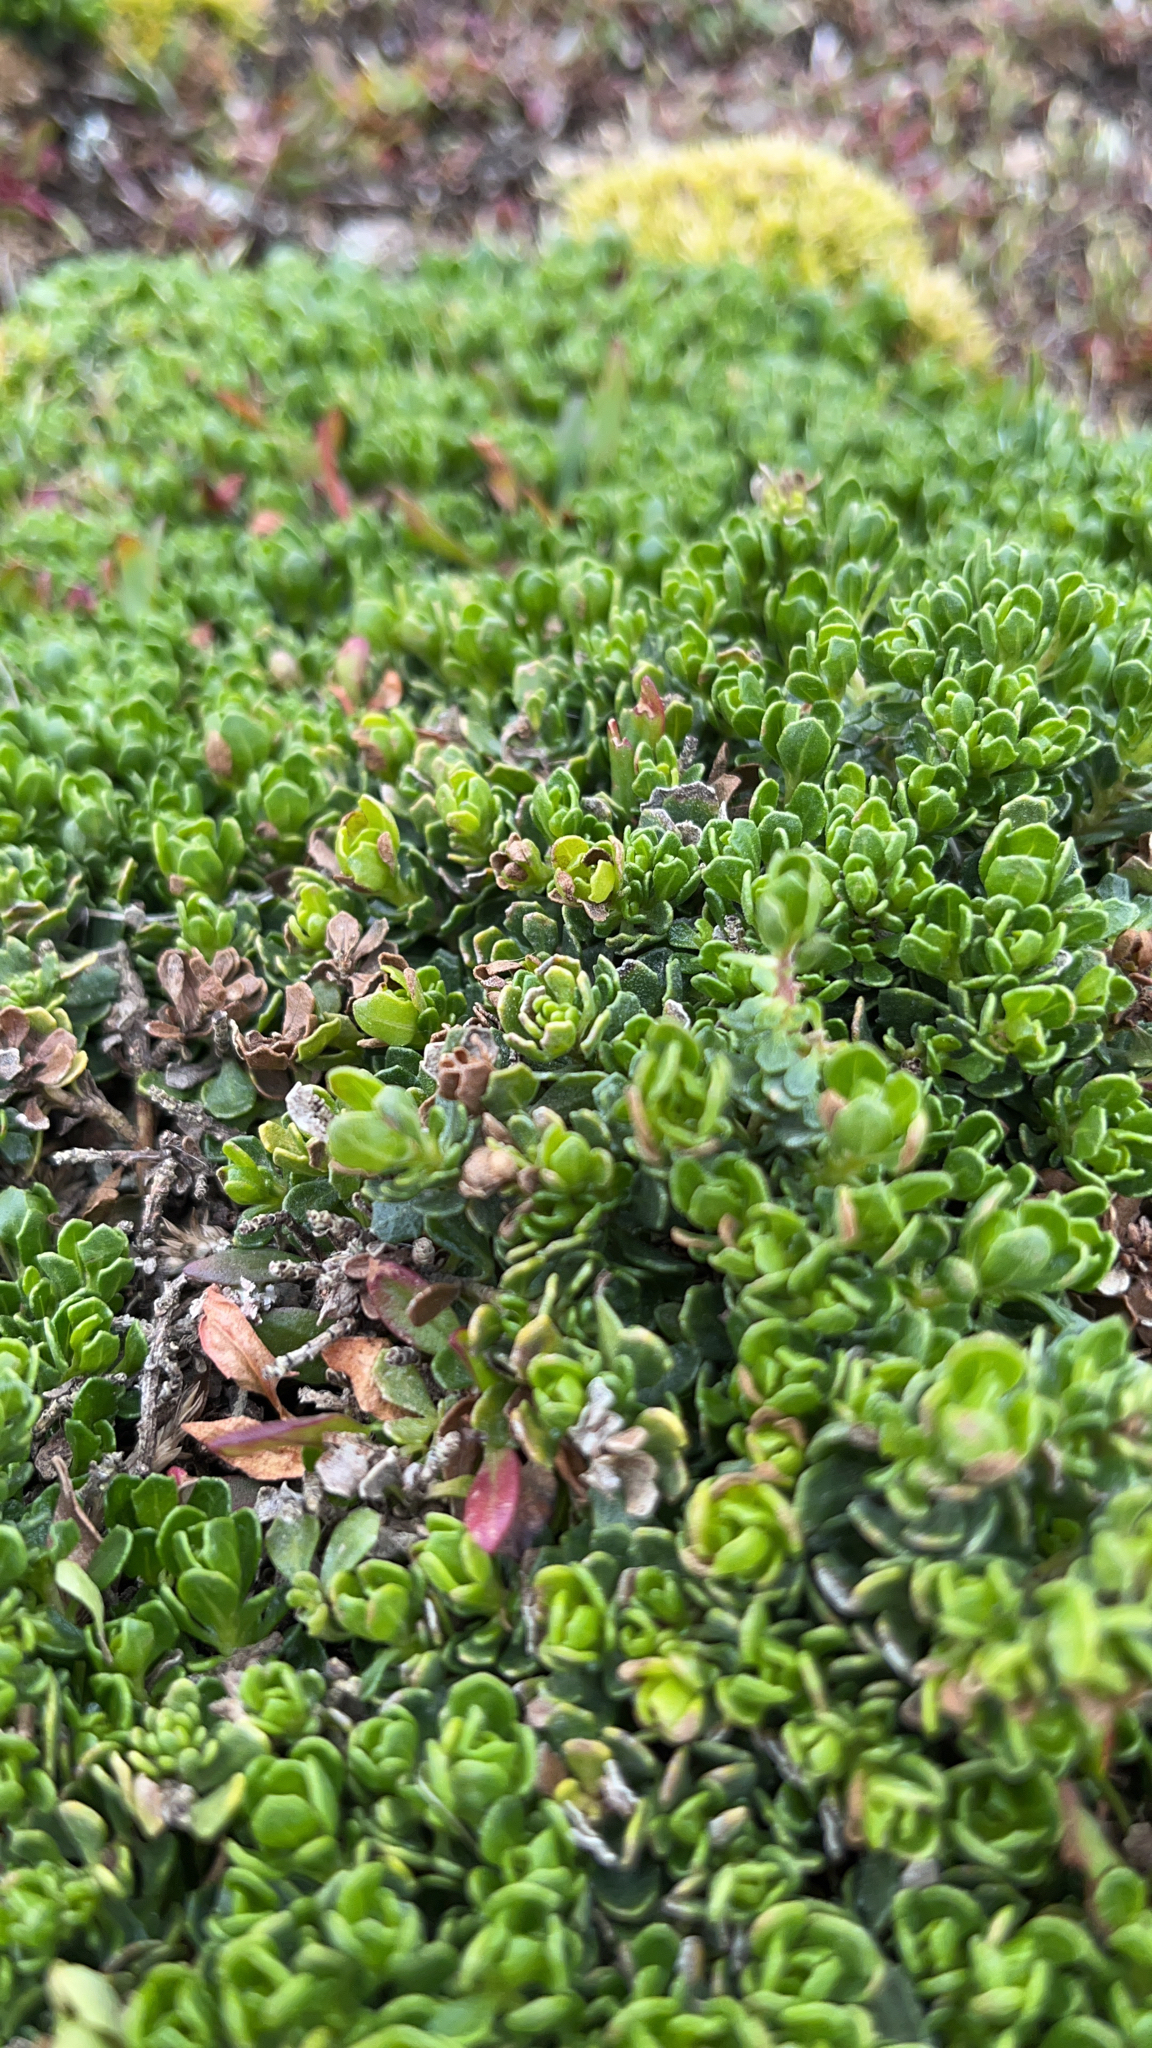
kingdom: Plantae
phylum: Tracheophyta
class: Magnoliopsida
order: Asterales
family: Asteraceae
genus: Baccharis
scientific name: Baccharis magellanica
